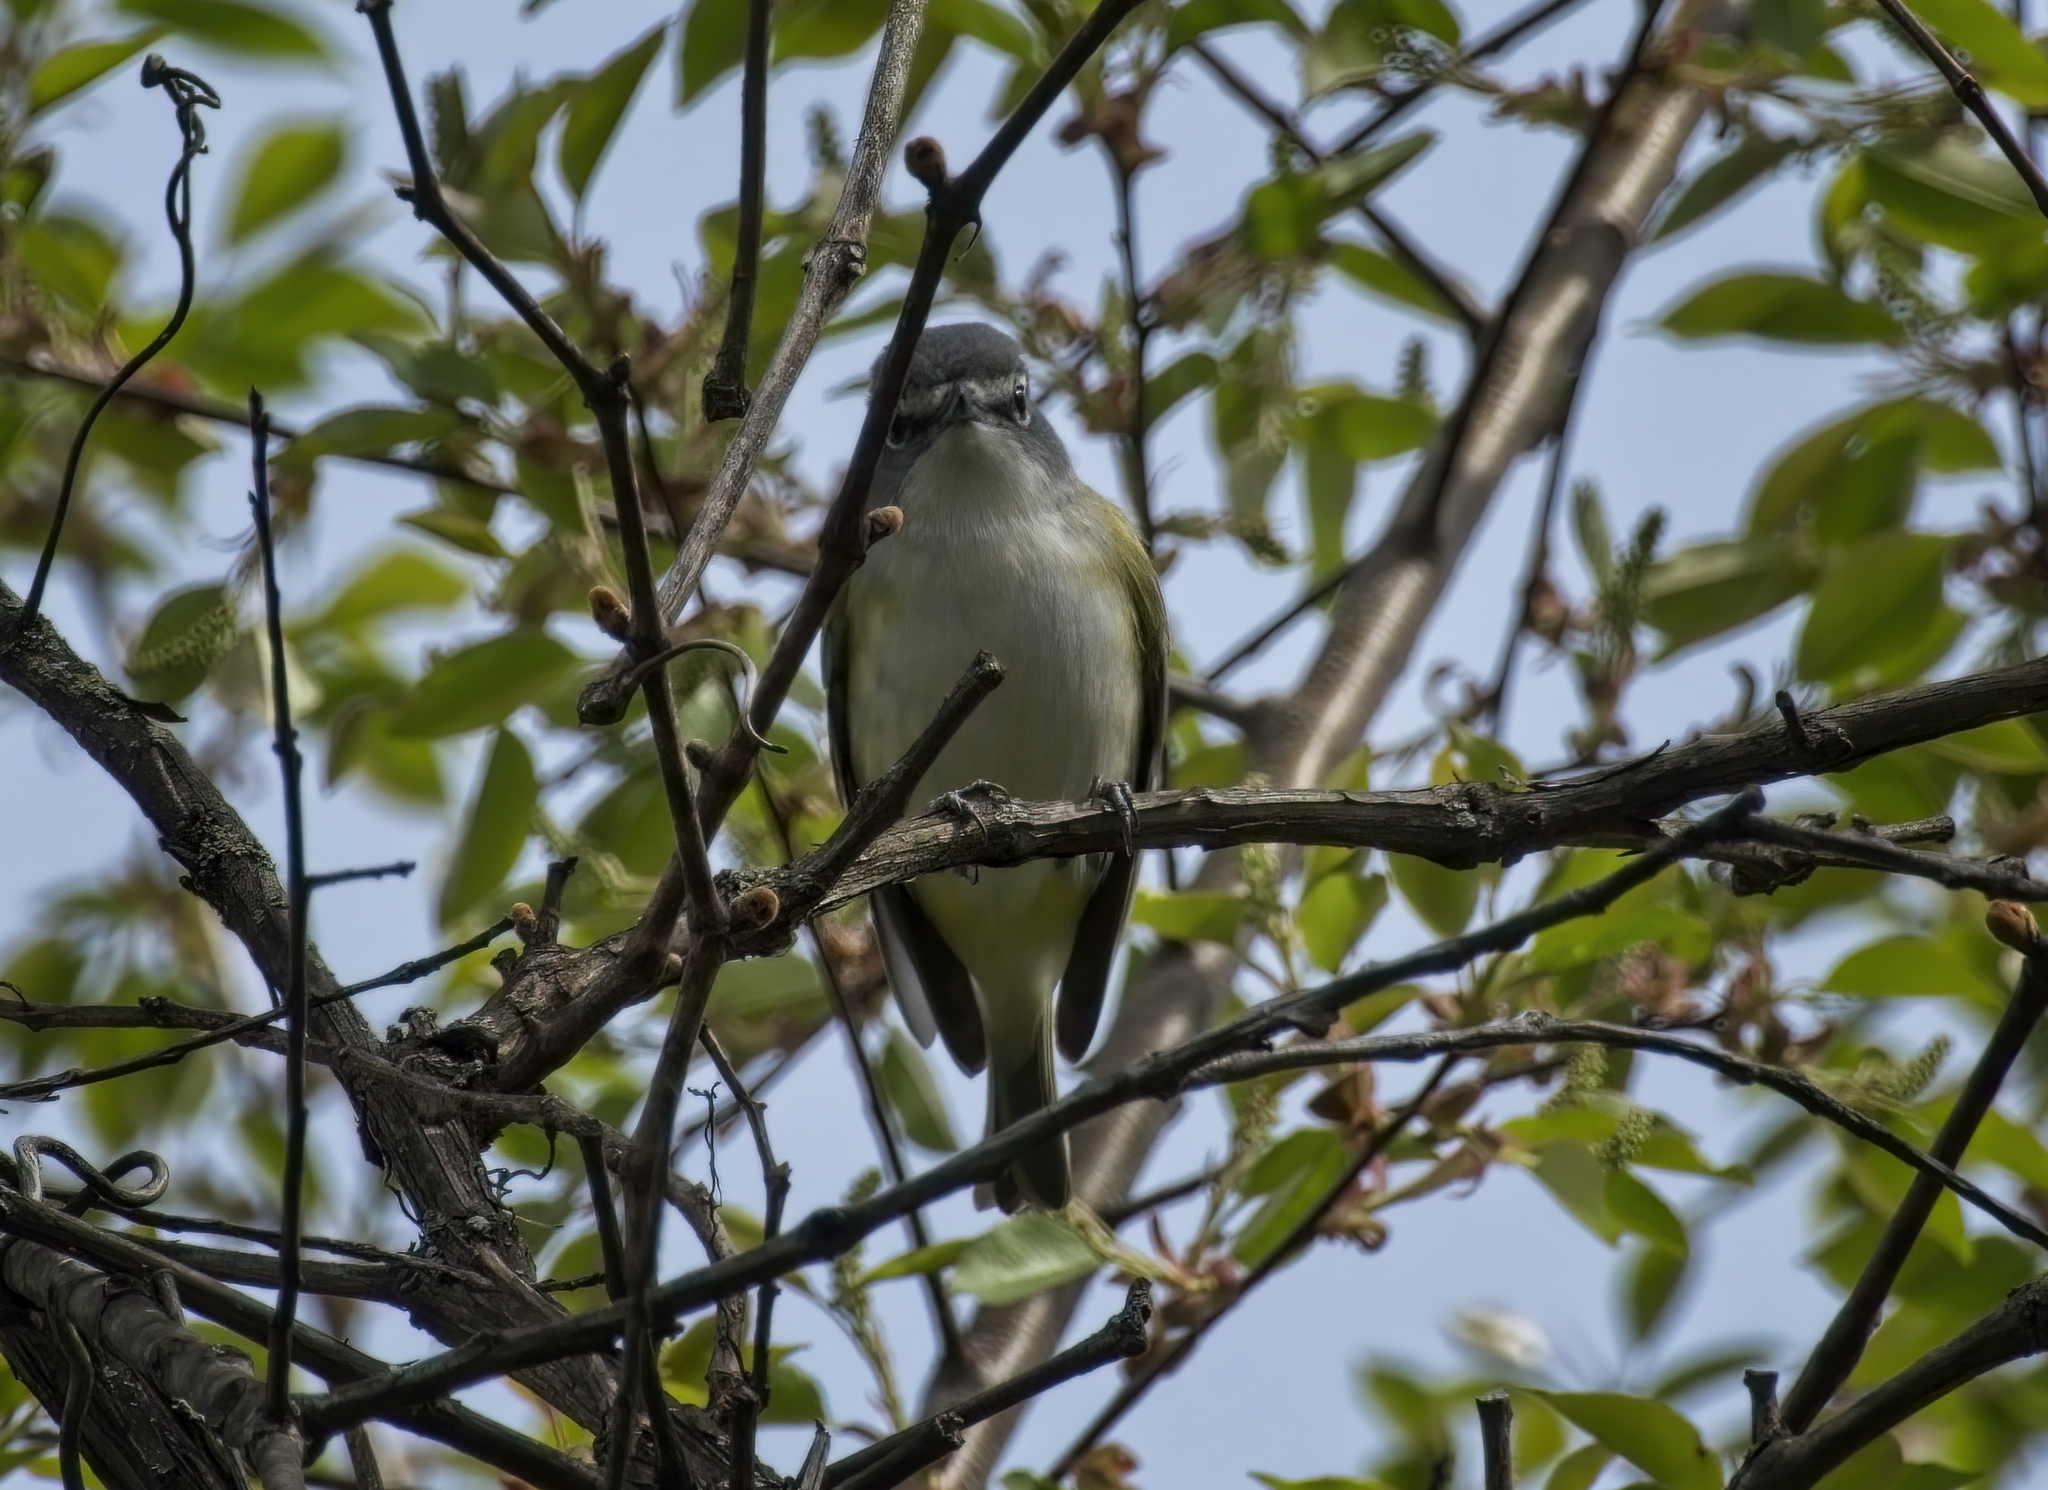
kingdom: Animalia
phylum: Chordata
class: Aves
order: Passeriformes
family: Vireonidae
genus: Vireo
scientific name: Vireo solitarius
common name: Blue-headed vireo
